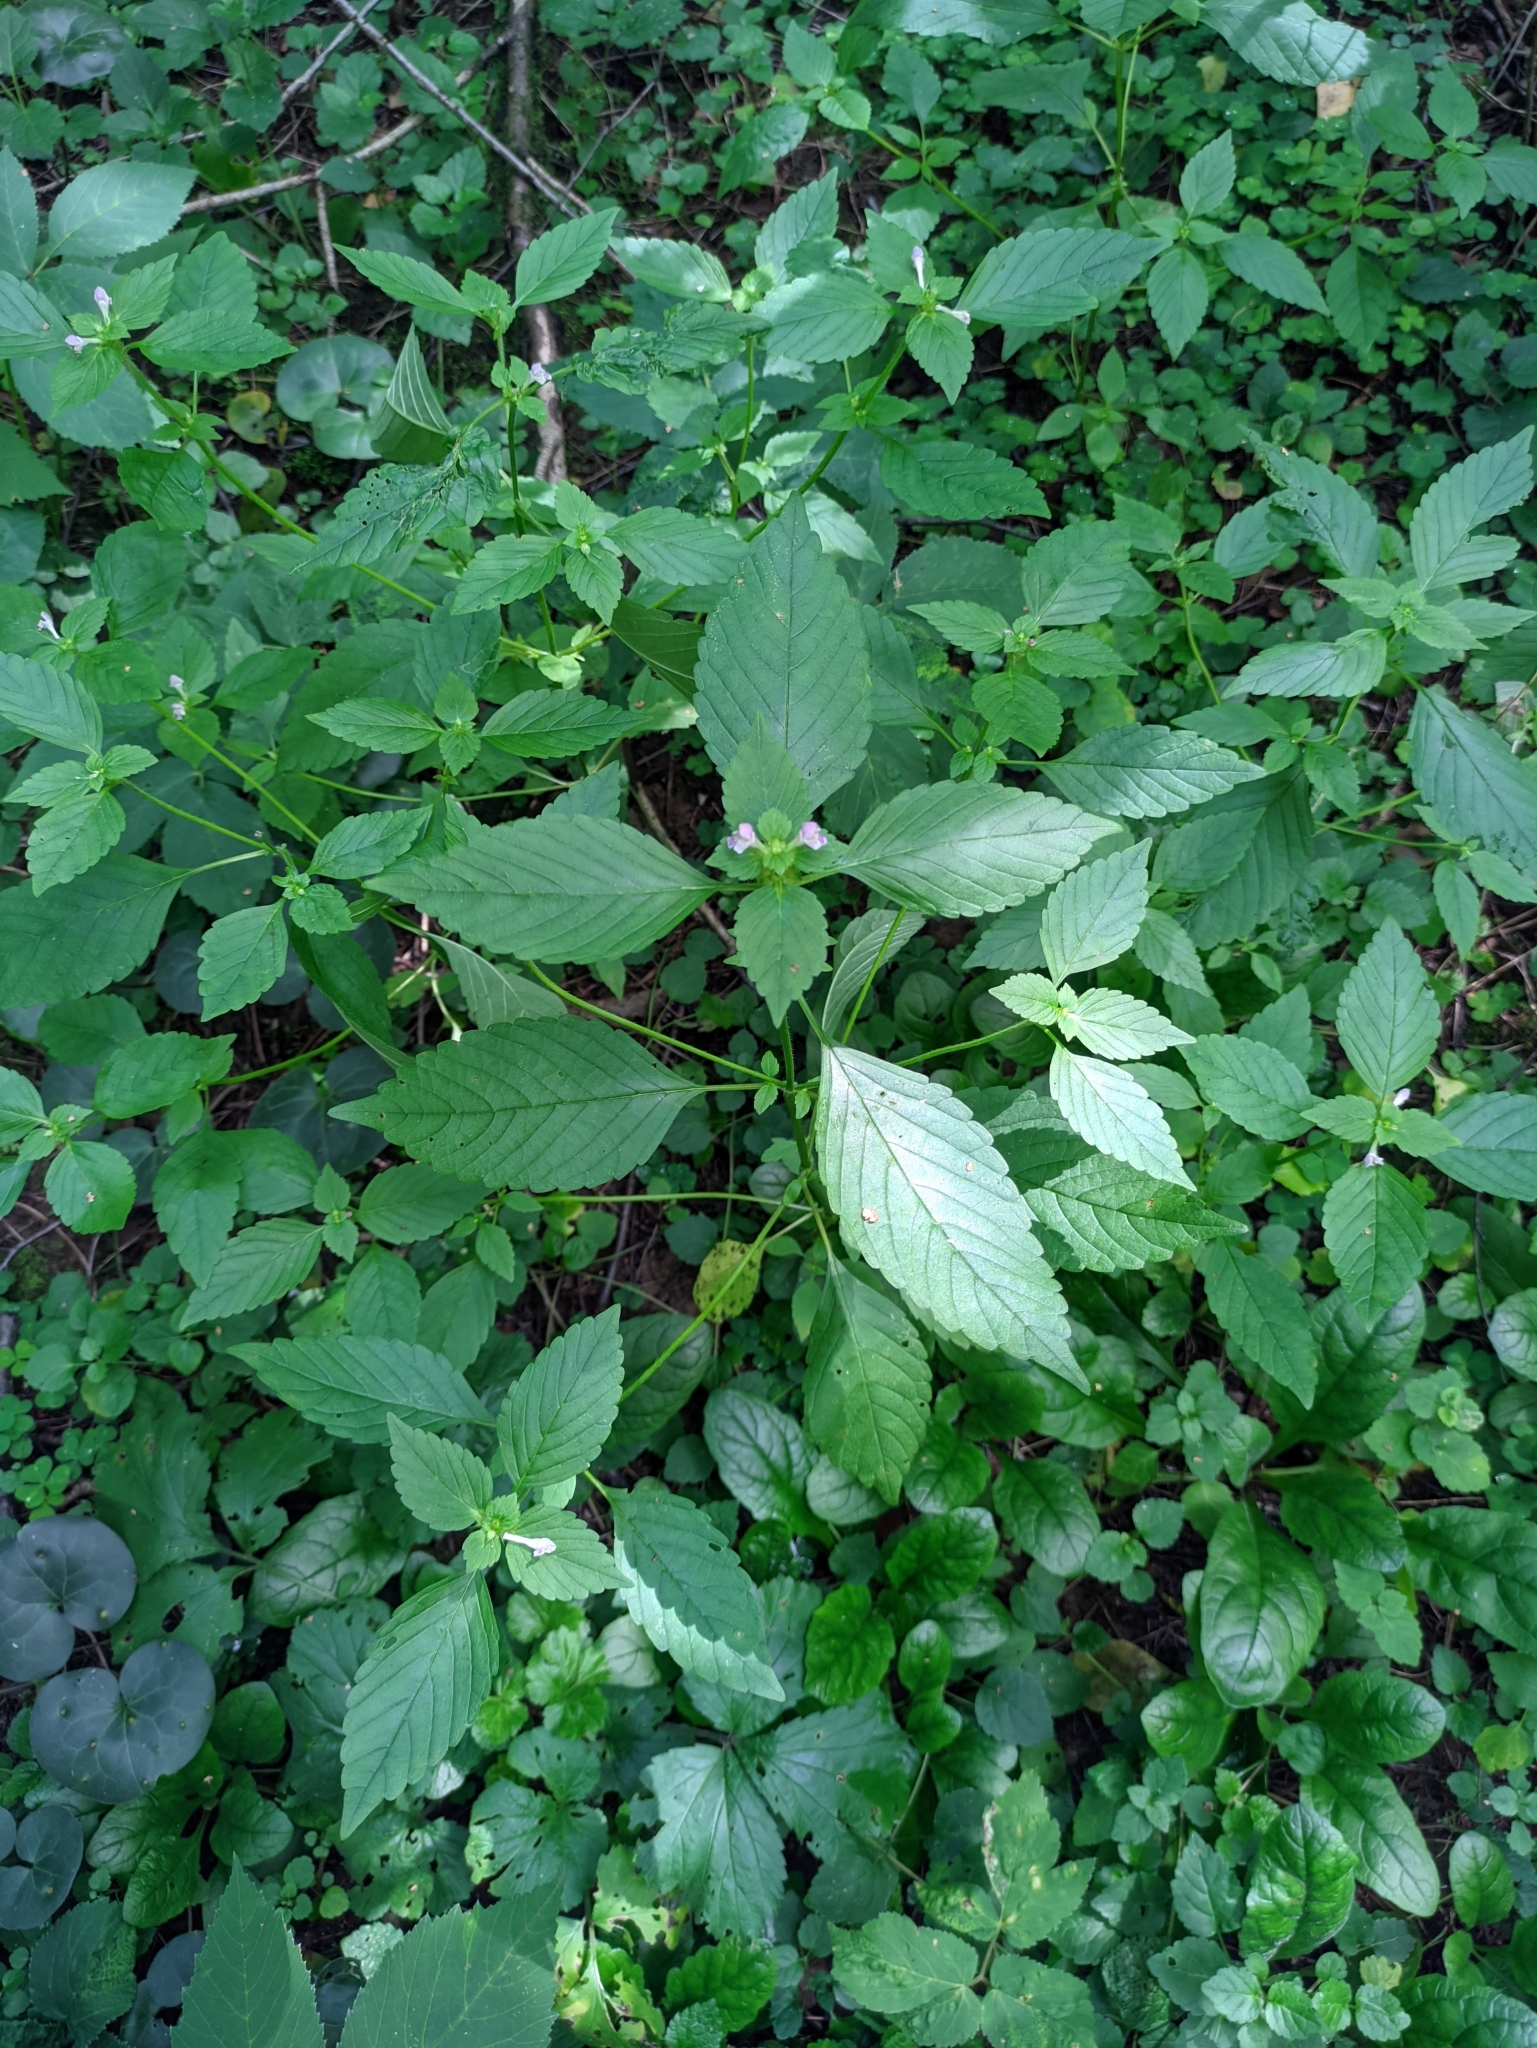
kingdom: Plantae
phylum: Tracheophyta
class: Magnoliopsida
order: Lamiales
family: Lamiaceae
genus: Galeopsis
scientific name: Galeopsis bifida
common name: Bifid hemp-nettle
